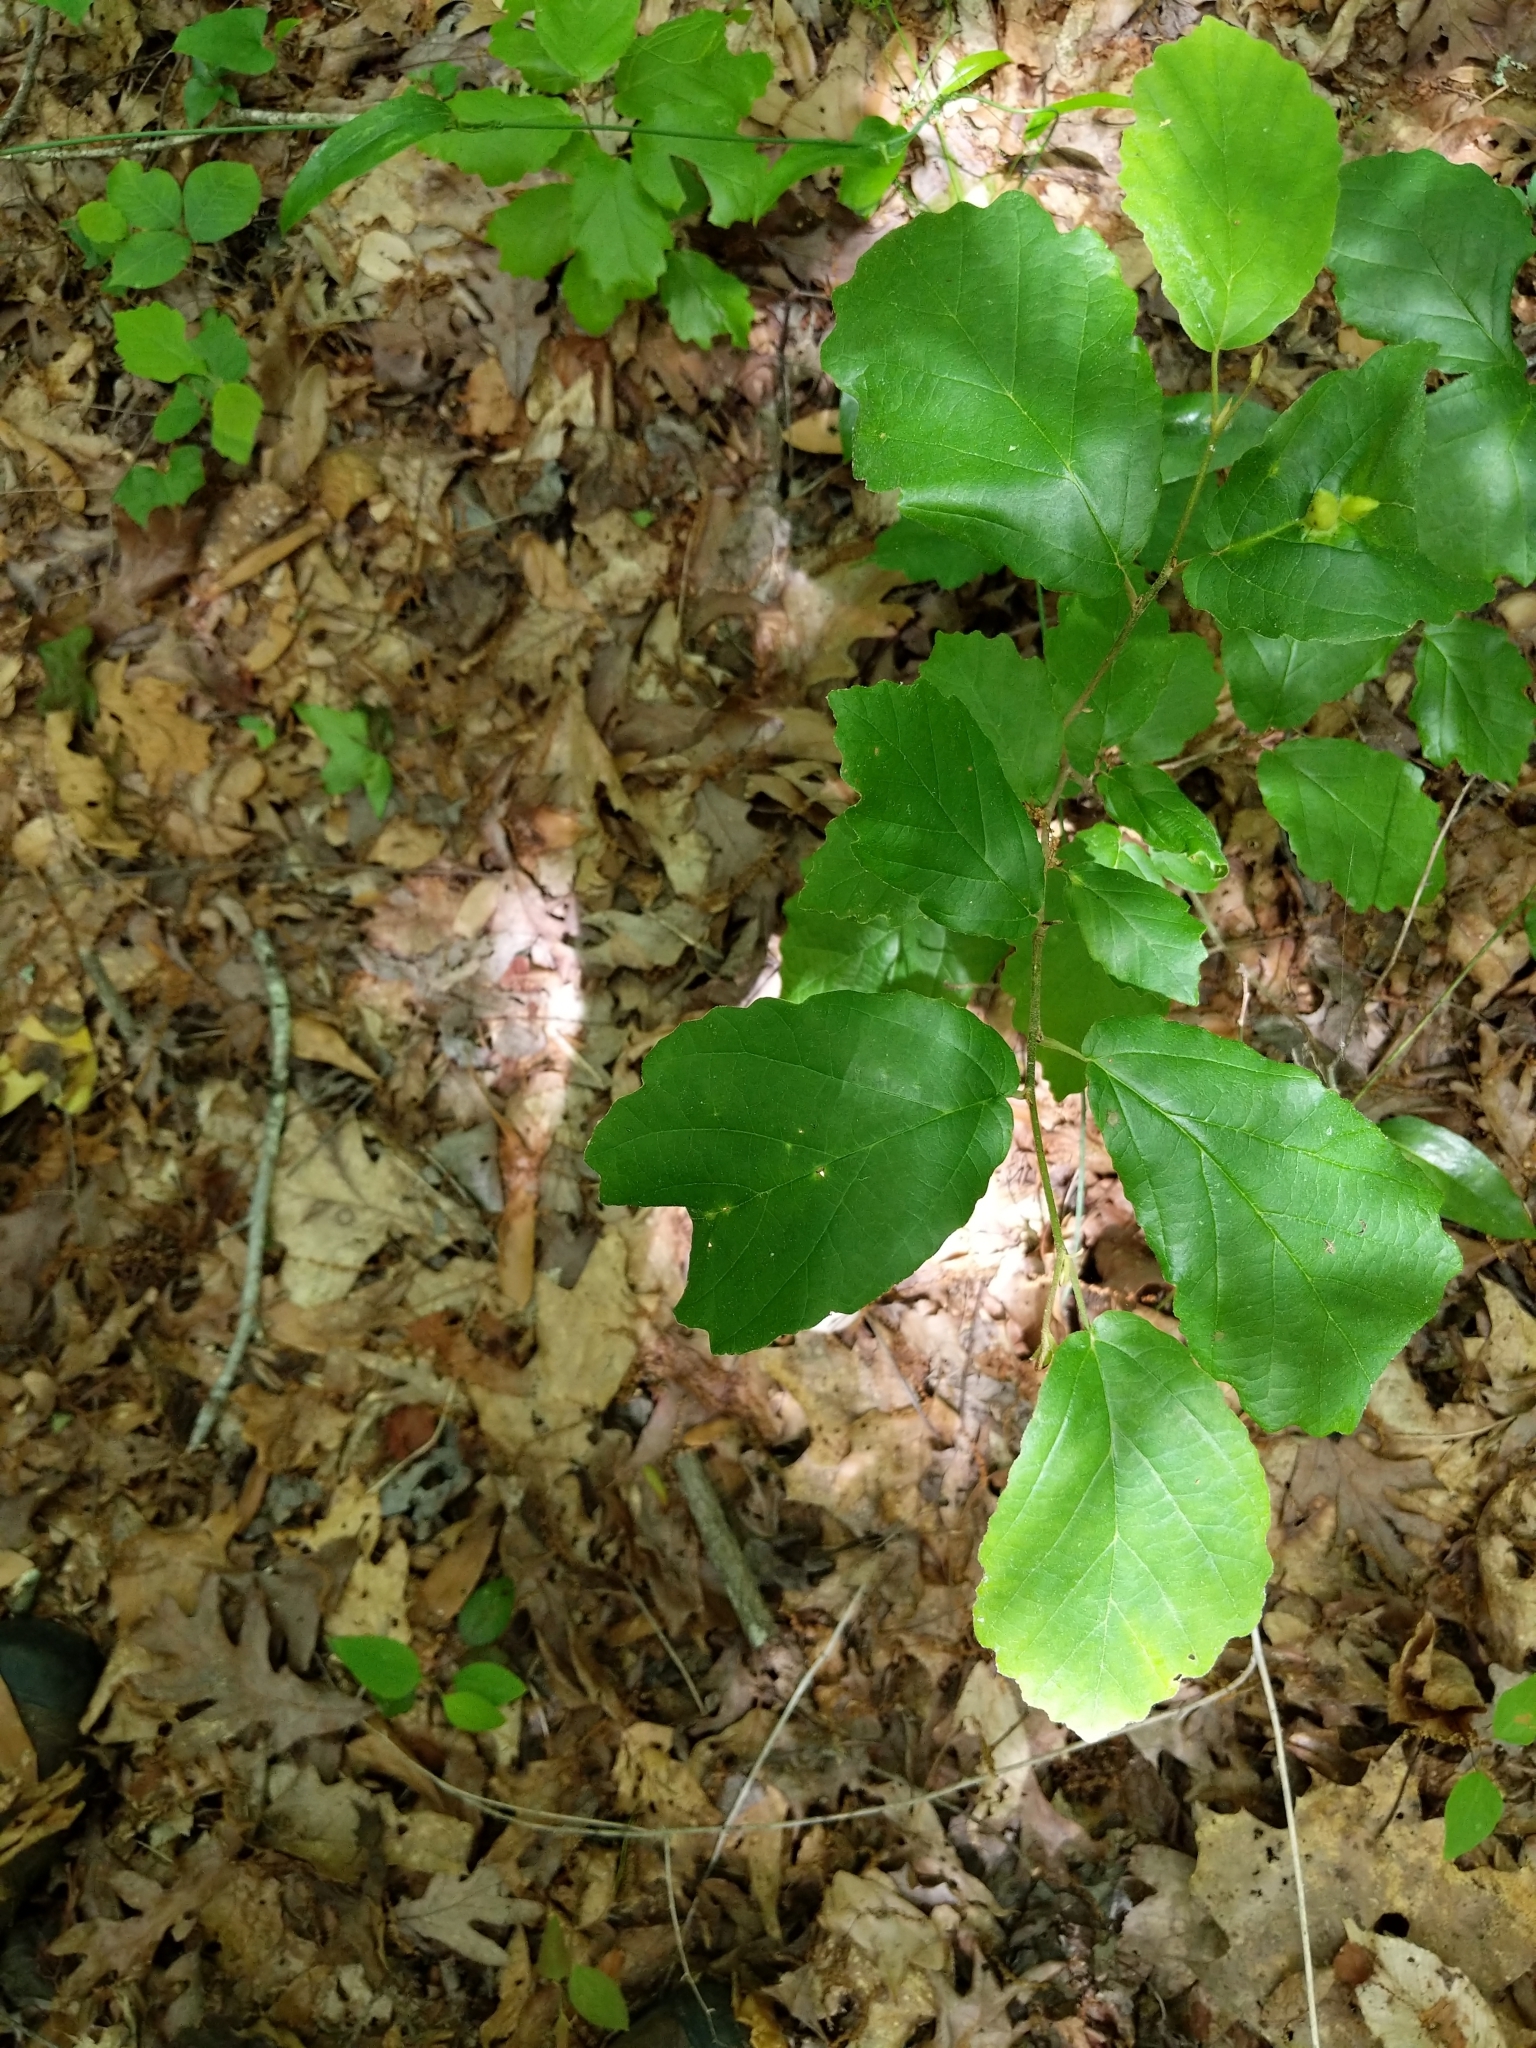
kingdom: Plantae
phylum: Tracheophyta
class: Magnoliopsida
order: Saxifragales
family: Hamamelidaceae
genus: Hamamelis
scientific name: Hamamelis virginiana
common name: Witch-hazel
